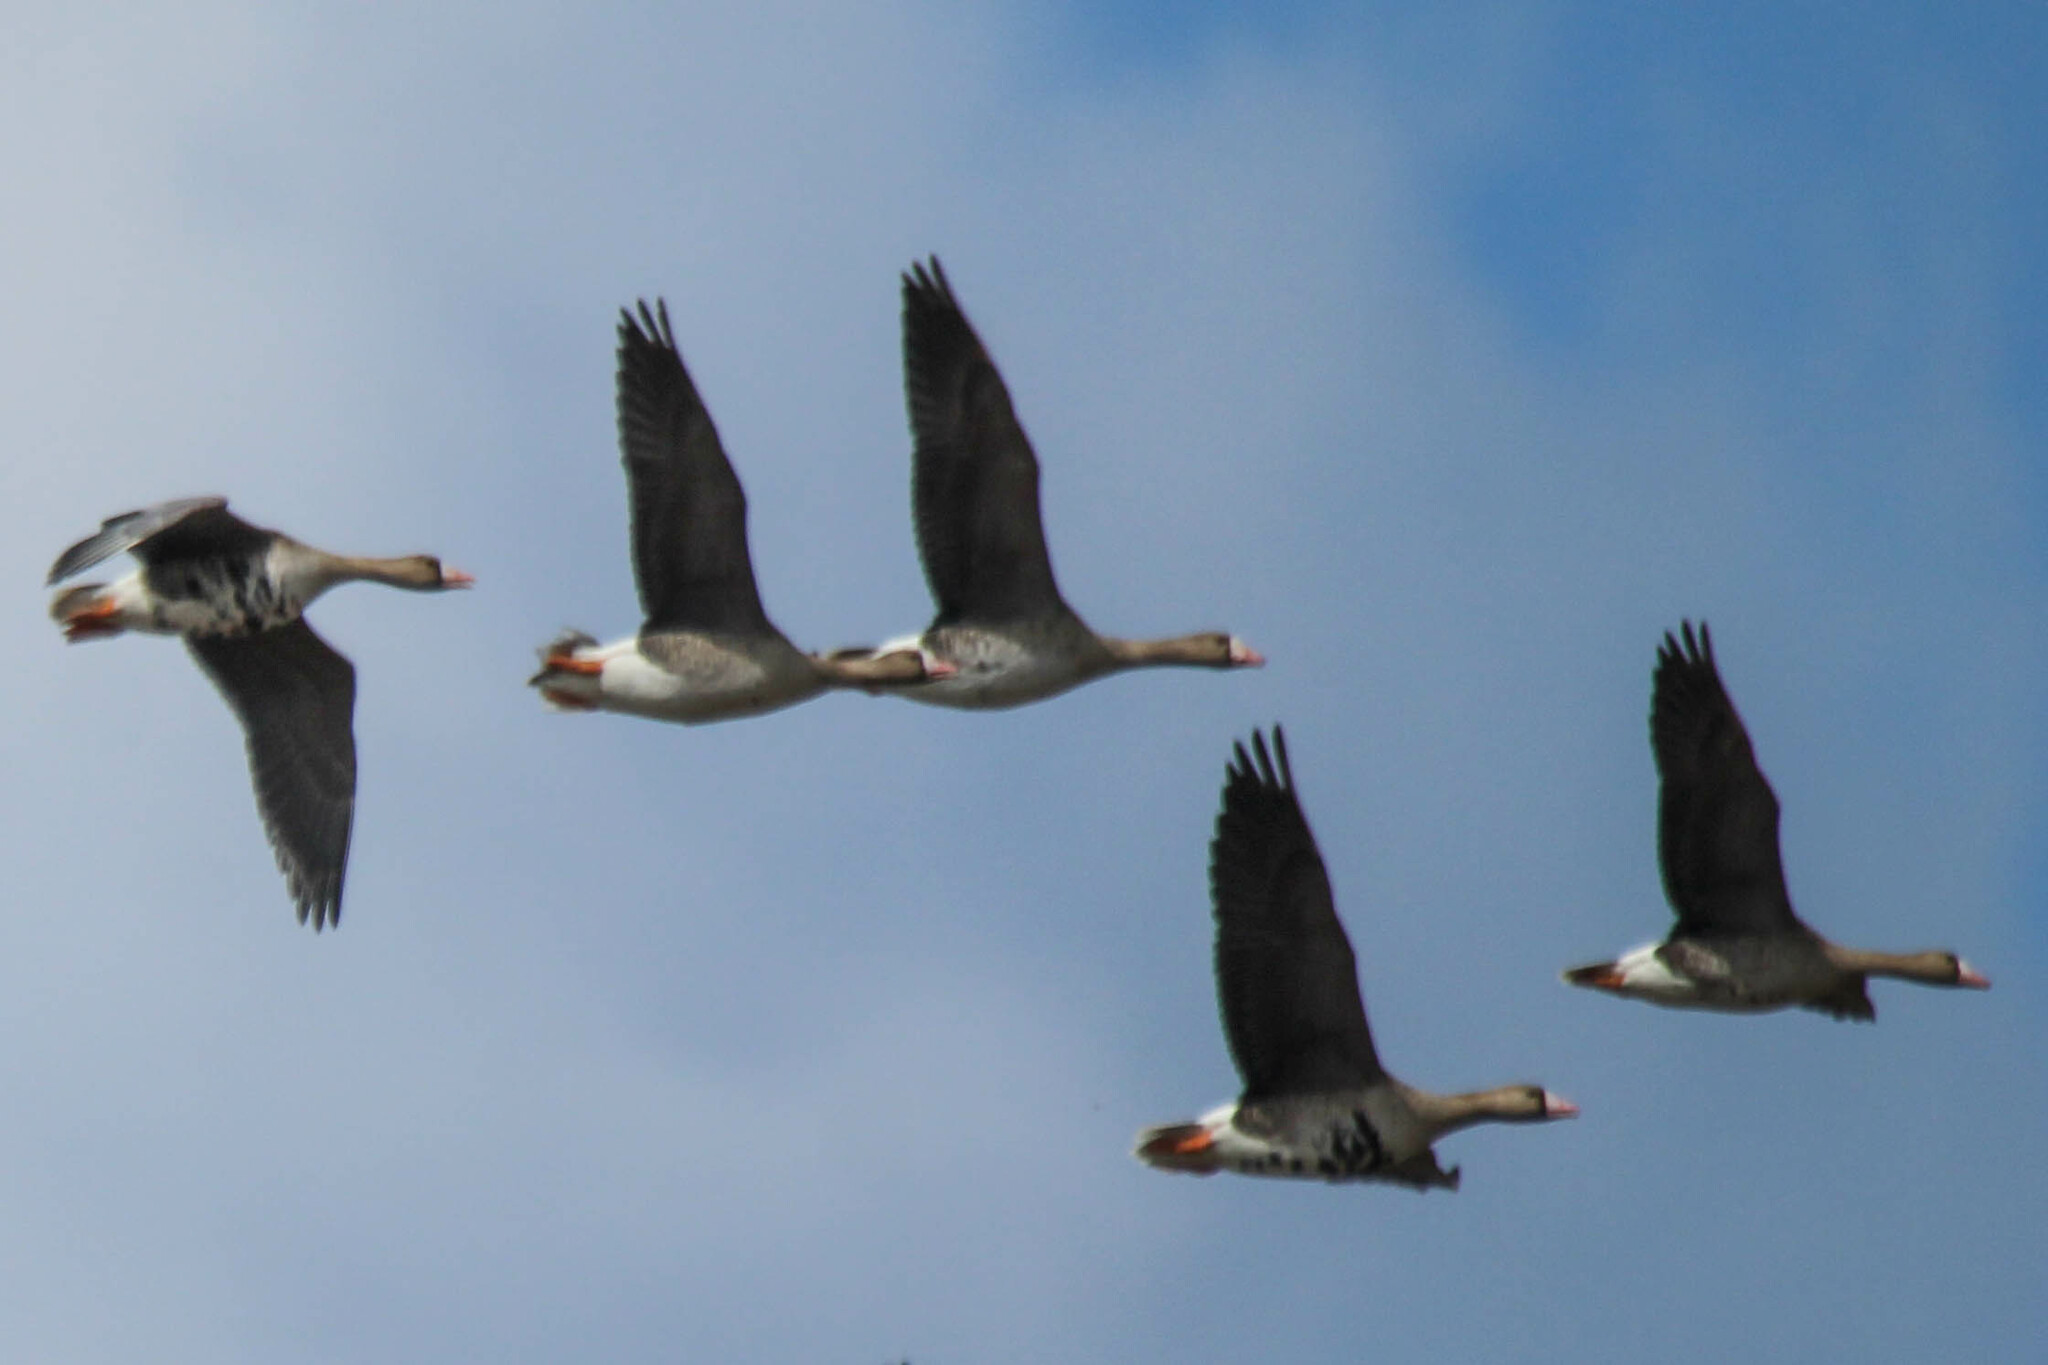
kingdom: Animalia
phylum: Chordata
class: Aves
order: Anseriformes
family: Anatidae
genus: Anser
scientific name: Anser albifrons
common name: Greater white-fronted goose
